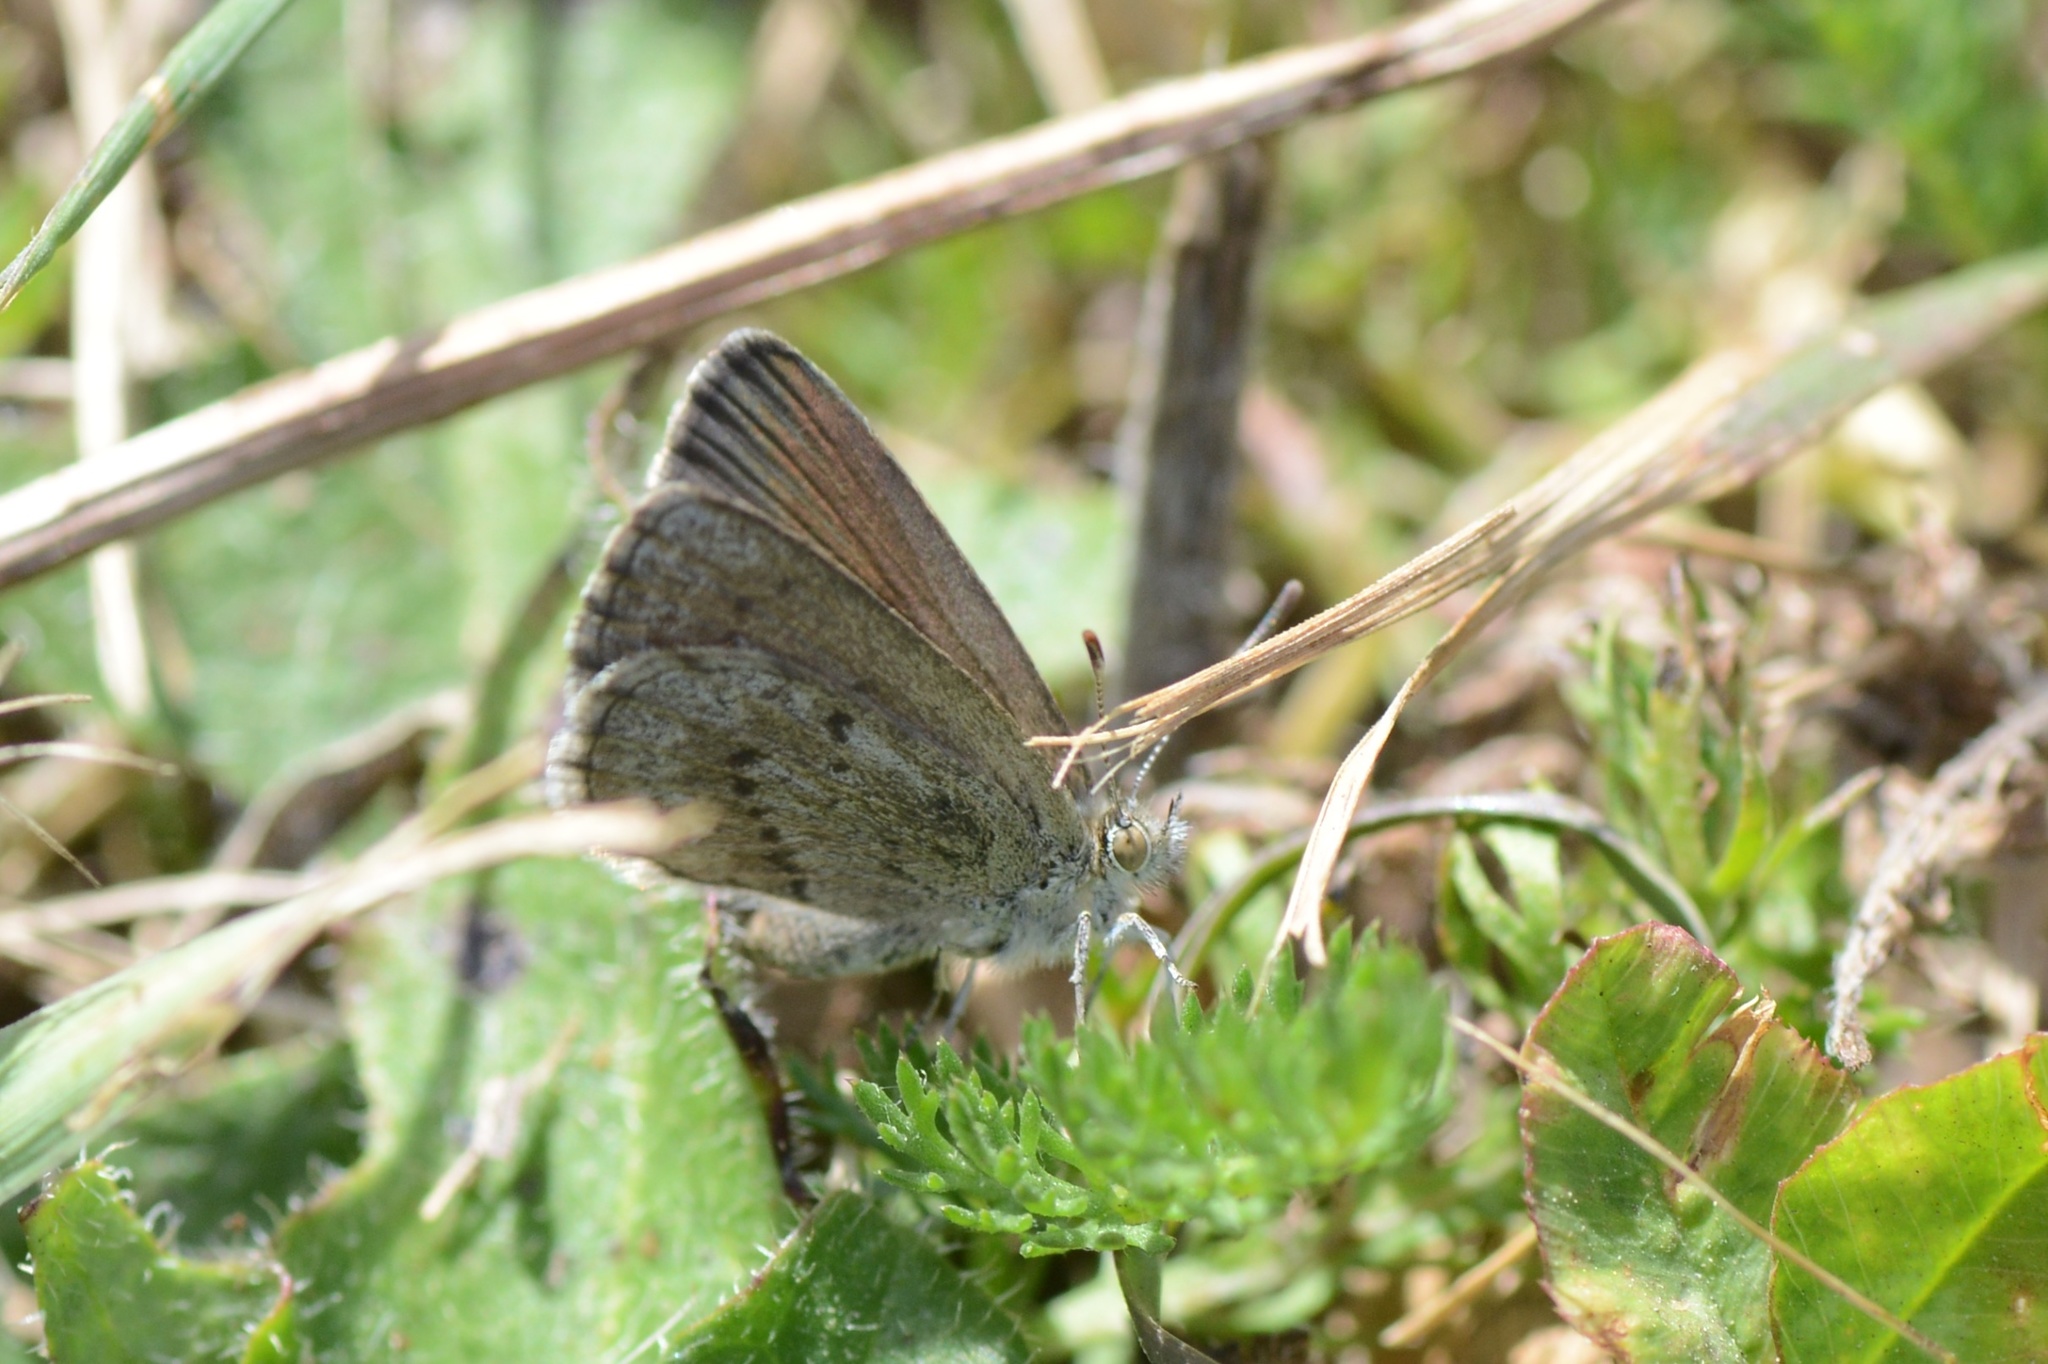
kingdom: Animalia
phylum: Arthropoda
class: Insecta
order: Lepidoptera
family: Lycaenidae
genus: Zizina
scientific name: Zizina oxleyi
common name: Southern blue
